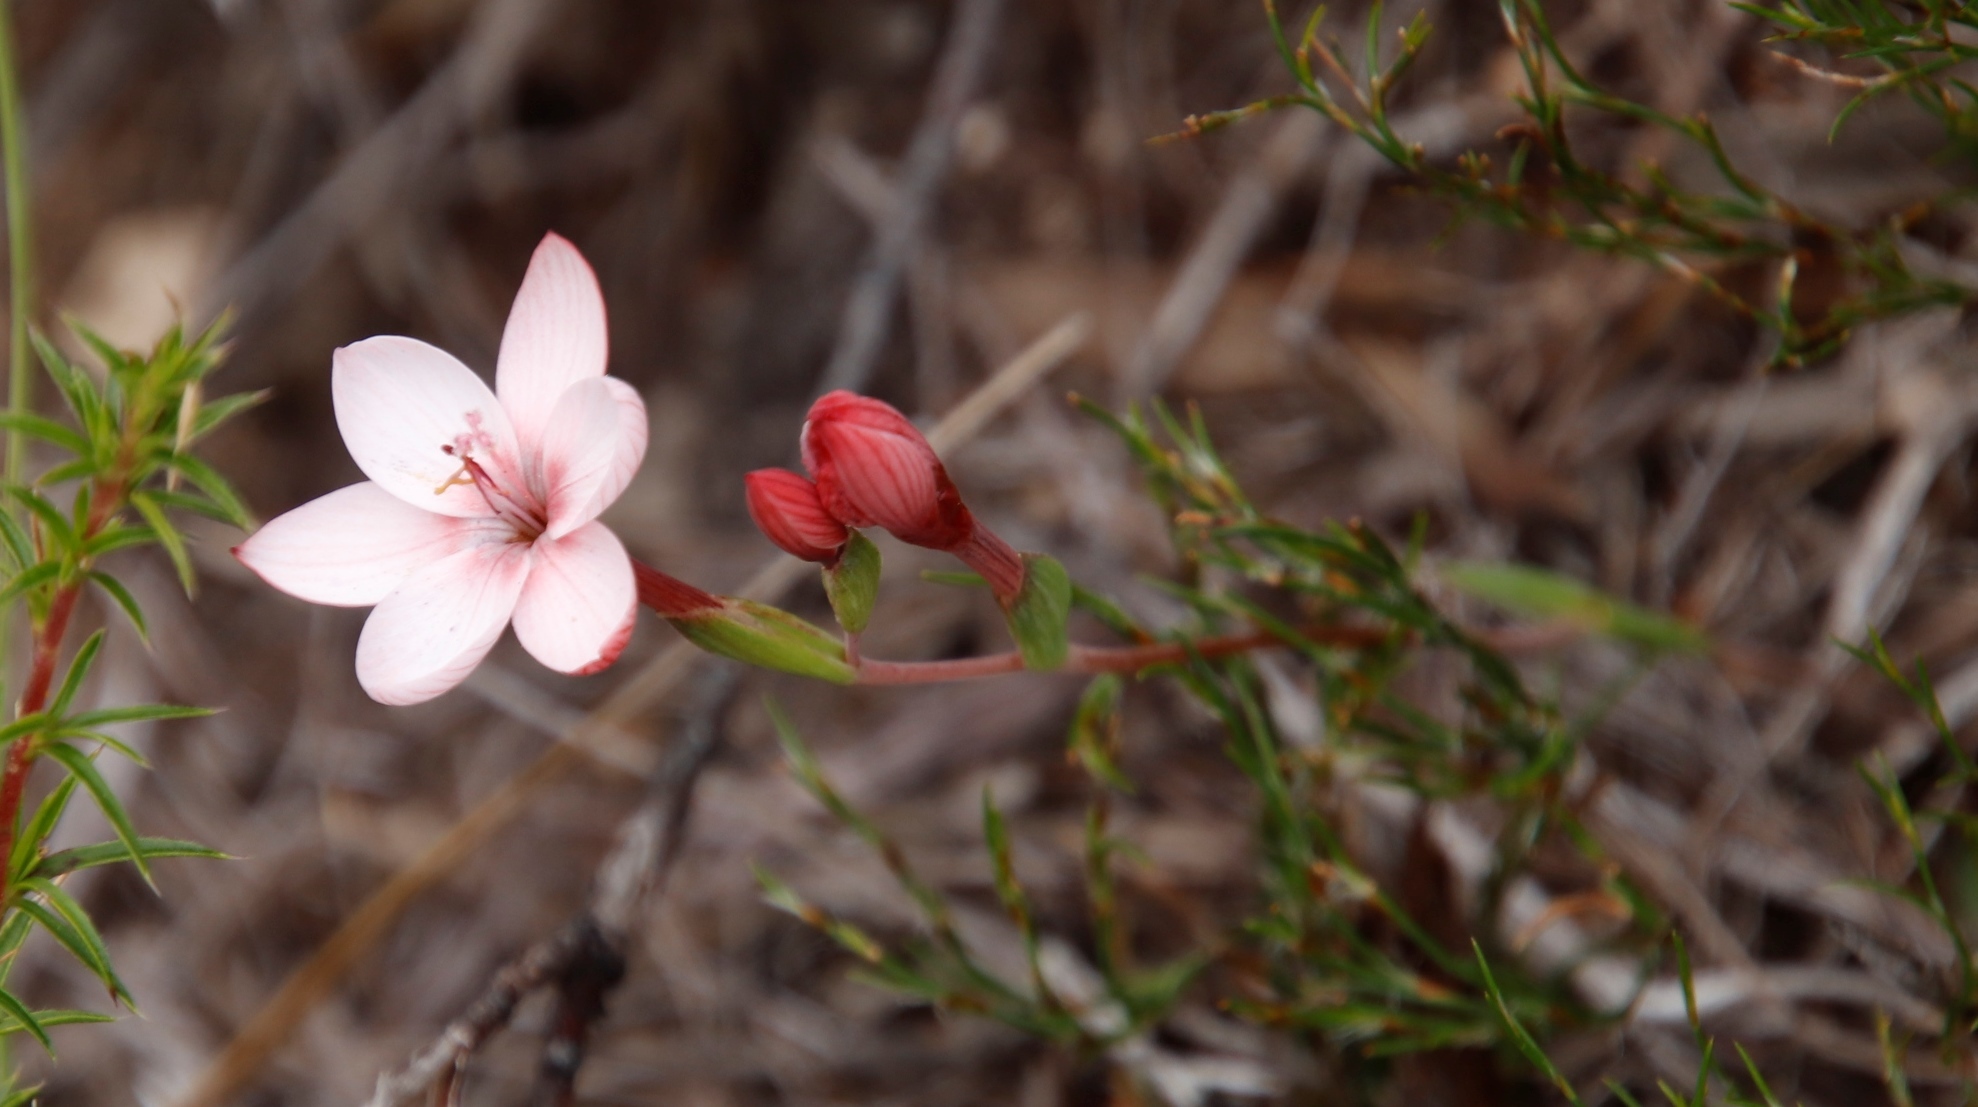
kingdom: Plantae
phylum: Tracheophyta
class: Liliopsida
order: Asparagales
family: Iridaceae
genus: Geissorhiza
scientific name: Geissorhiza ovata
